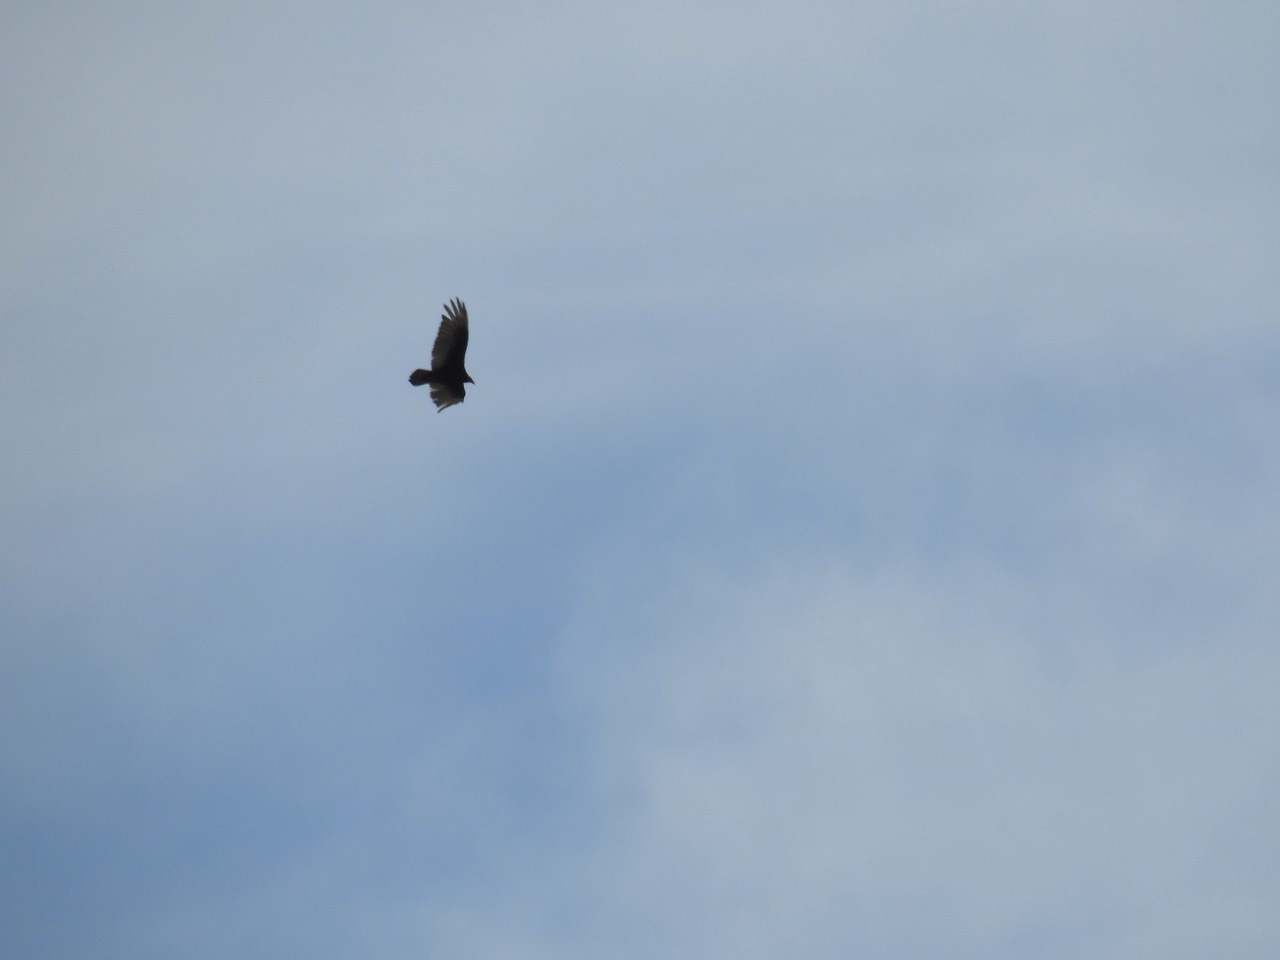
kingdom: Animalia
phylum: Chordata
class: Aves
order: Accipitriformes
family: Cathartidae
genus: Cathartes
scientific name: Cathartes aura
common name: Turkey vulture
